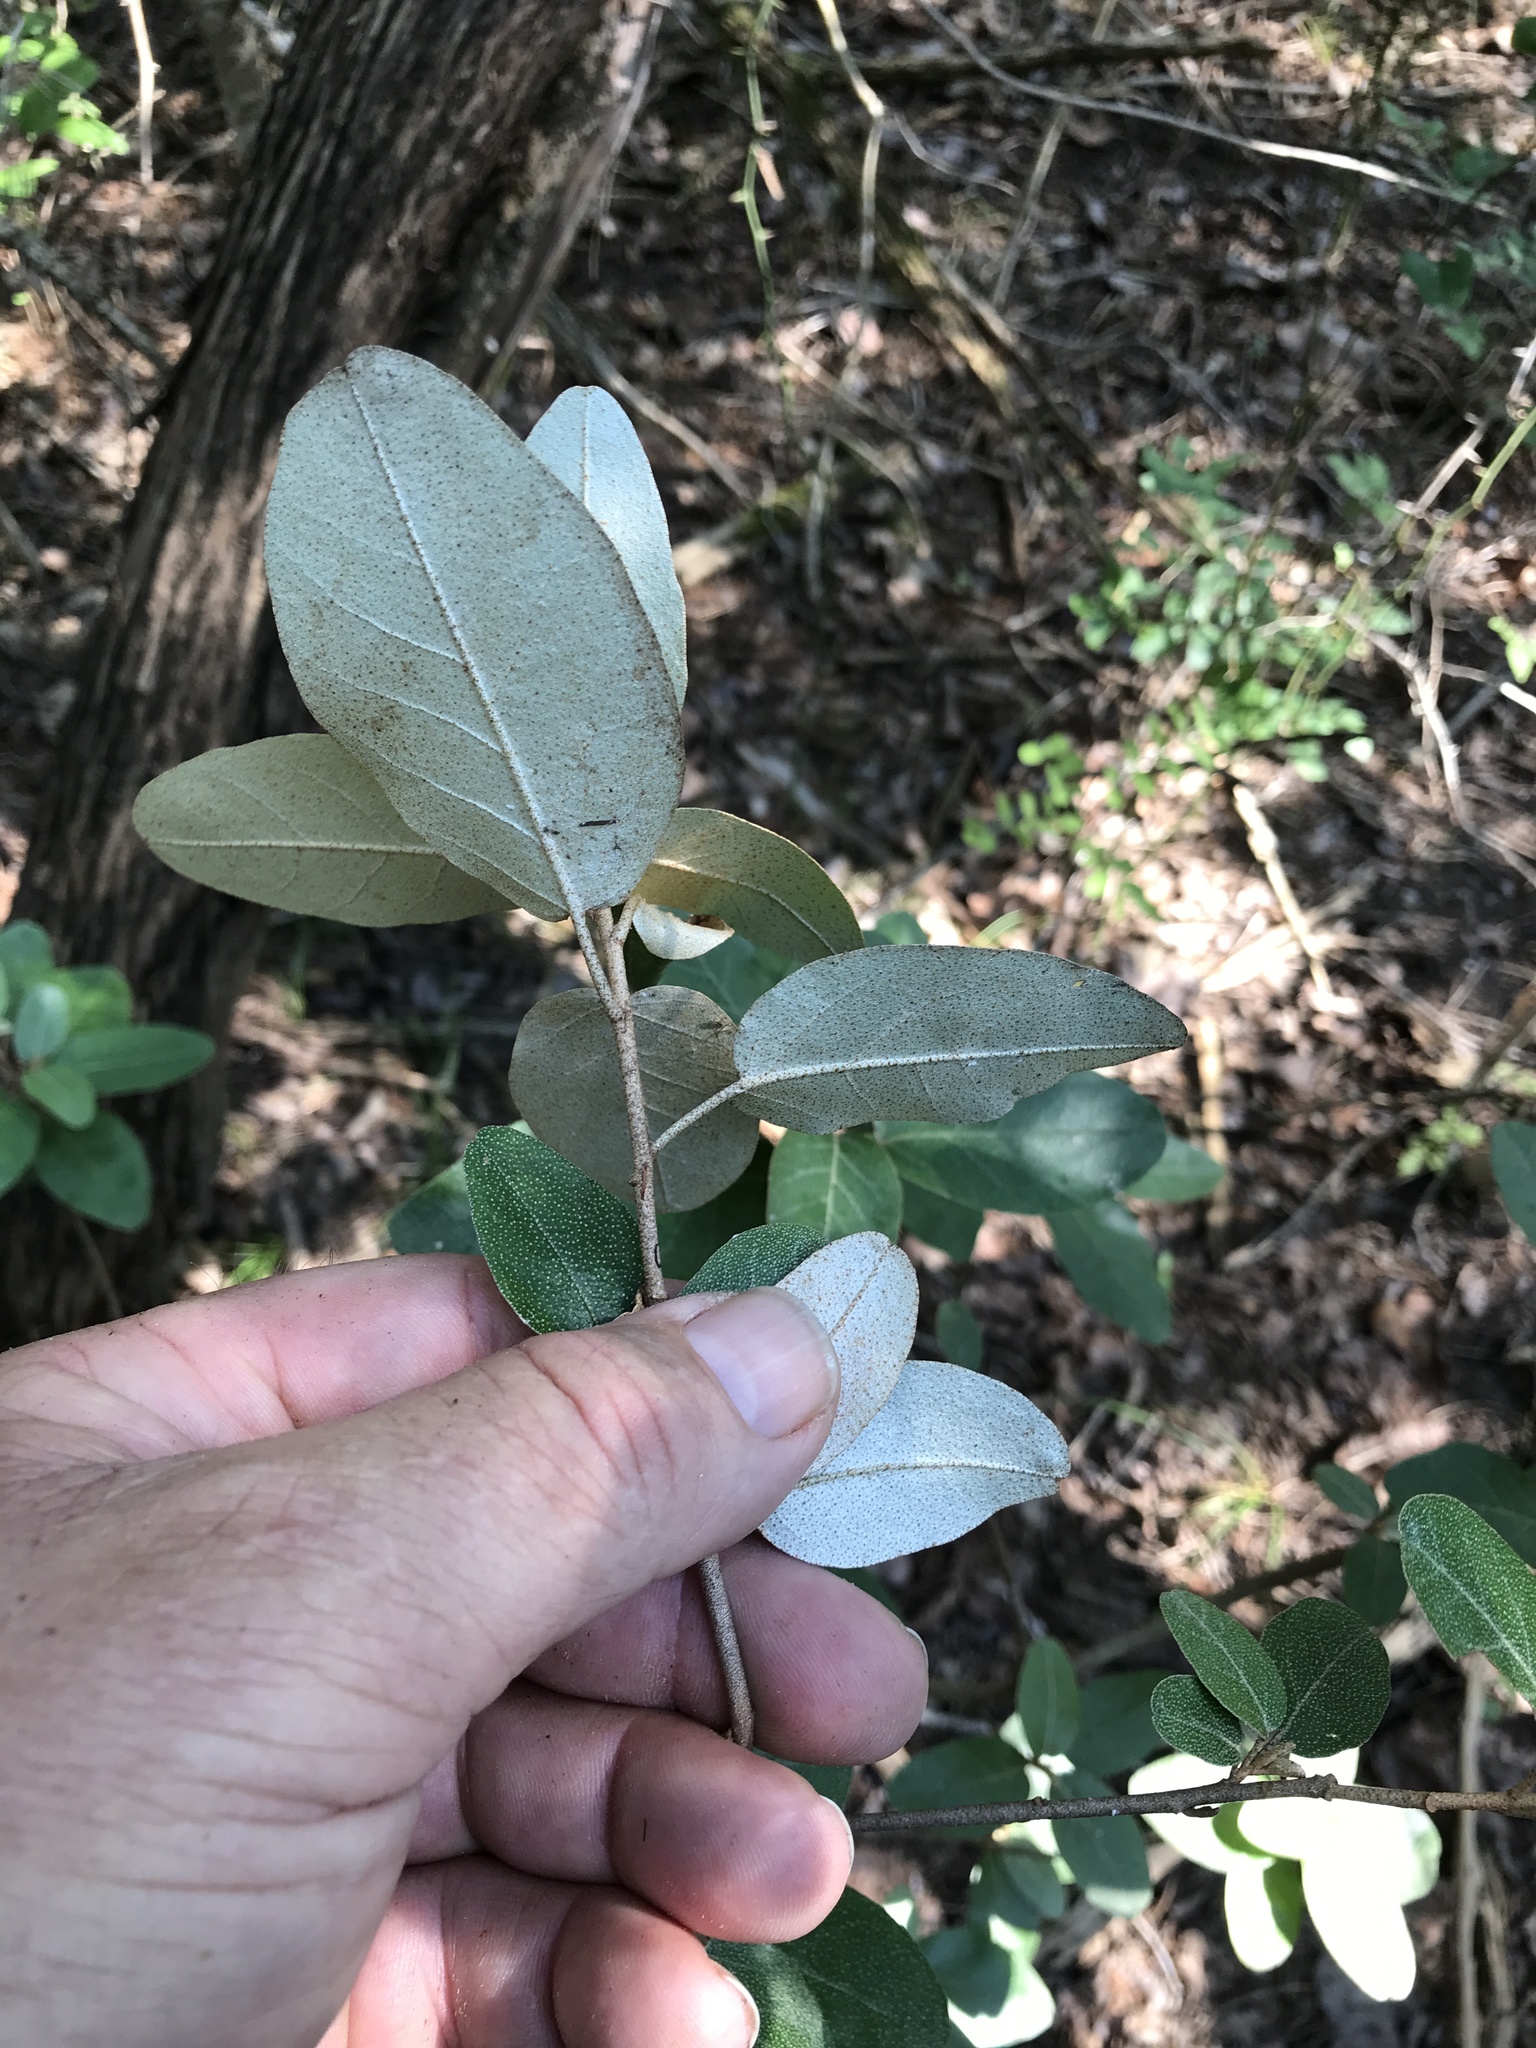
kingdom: Plantae
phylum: Tracheophyta
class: Magnoliopsida
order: Malpighiales
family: Euphorbiaceae
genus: Croton
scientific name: Croton alabamensis
